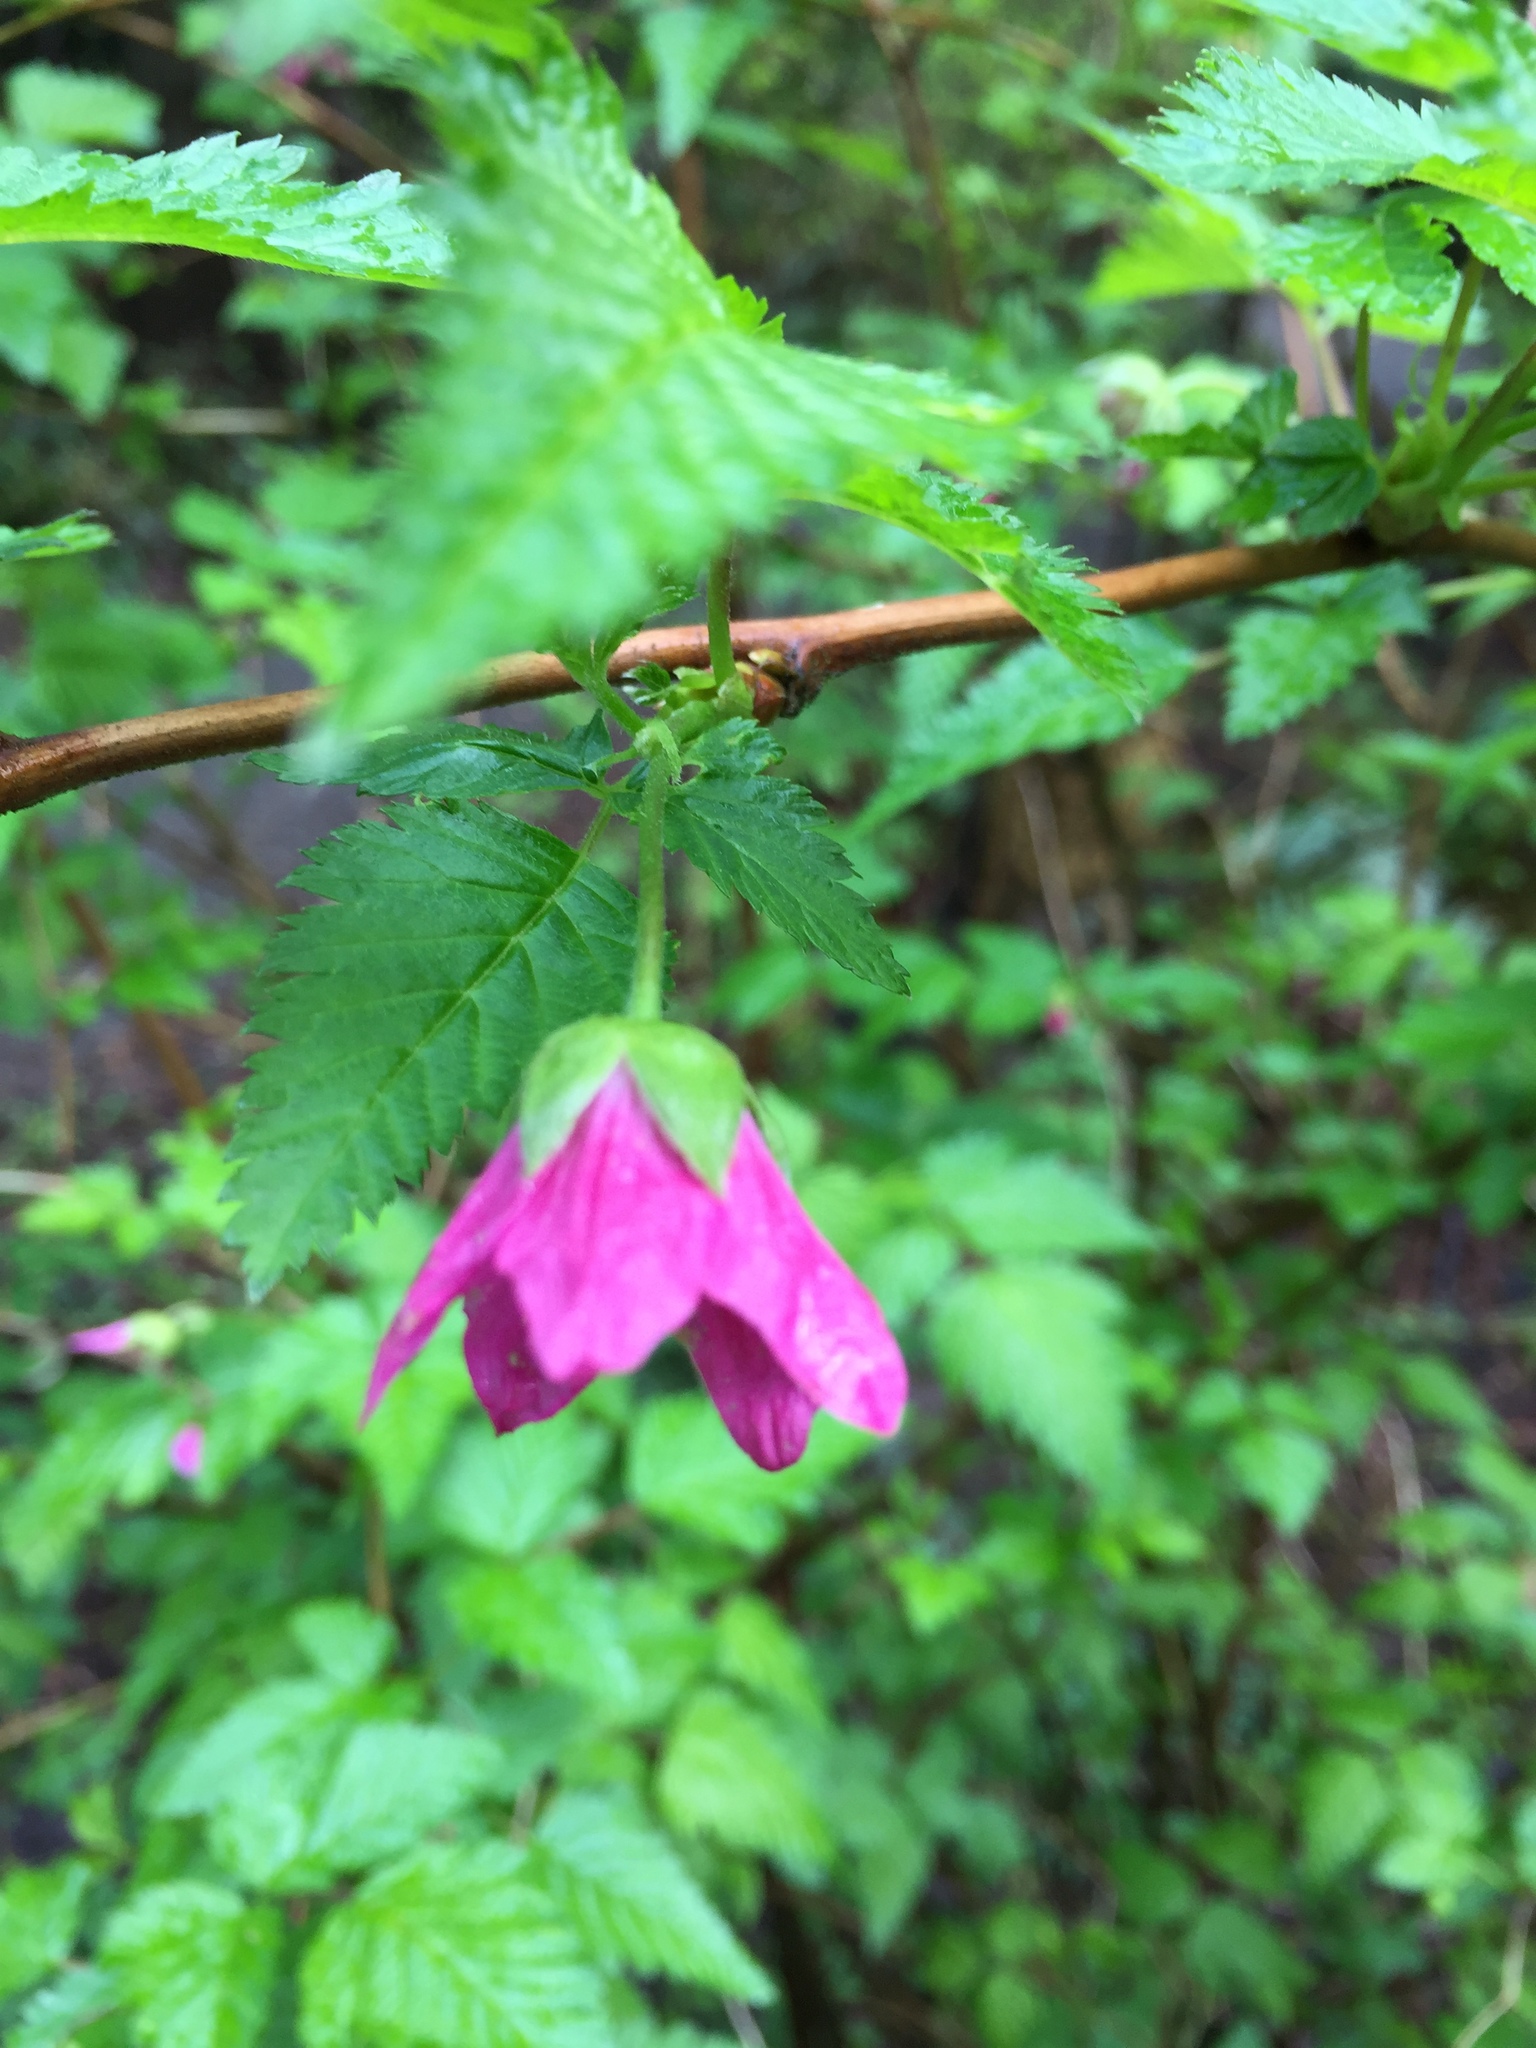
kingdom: Plantae
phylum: Tracheophyta
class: Magnoliopsida
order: Rosales
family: Rosaceae
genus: Rubus
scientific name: Rubus spectabilis
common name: Salmonberry
